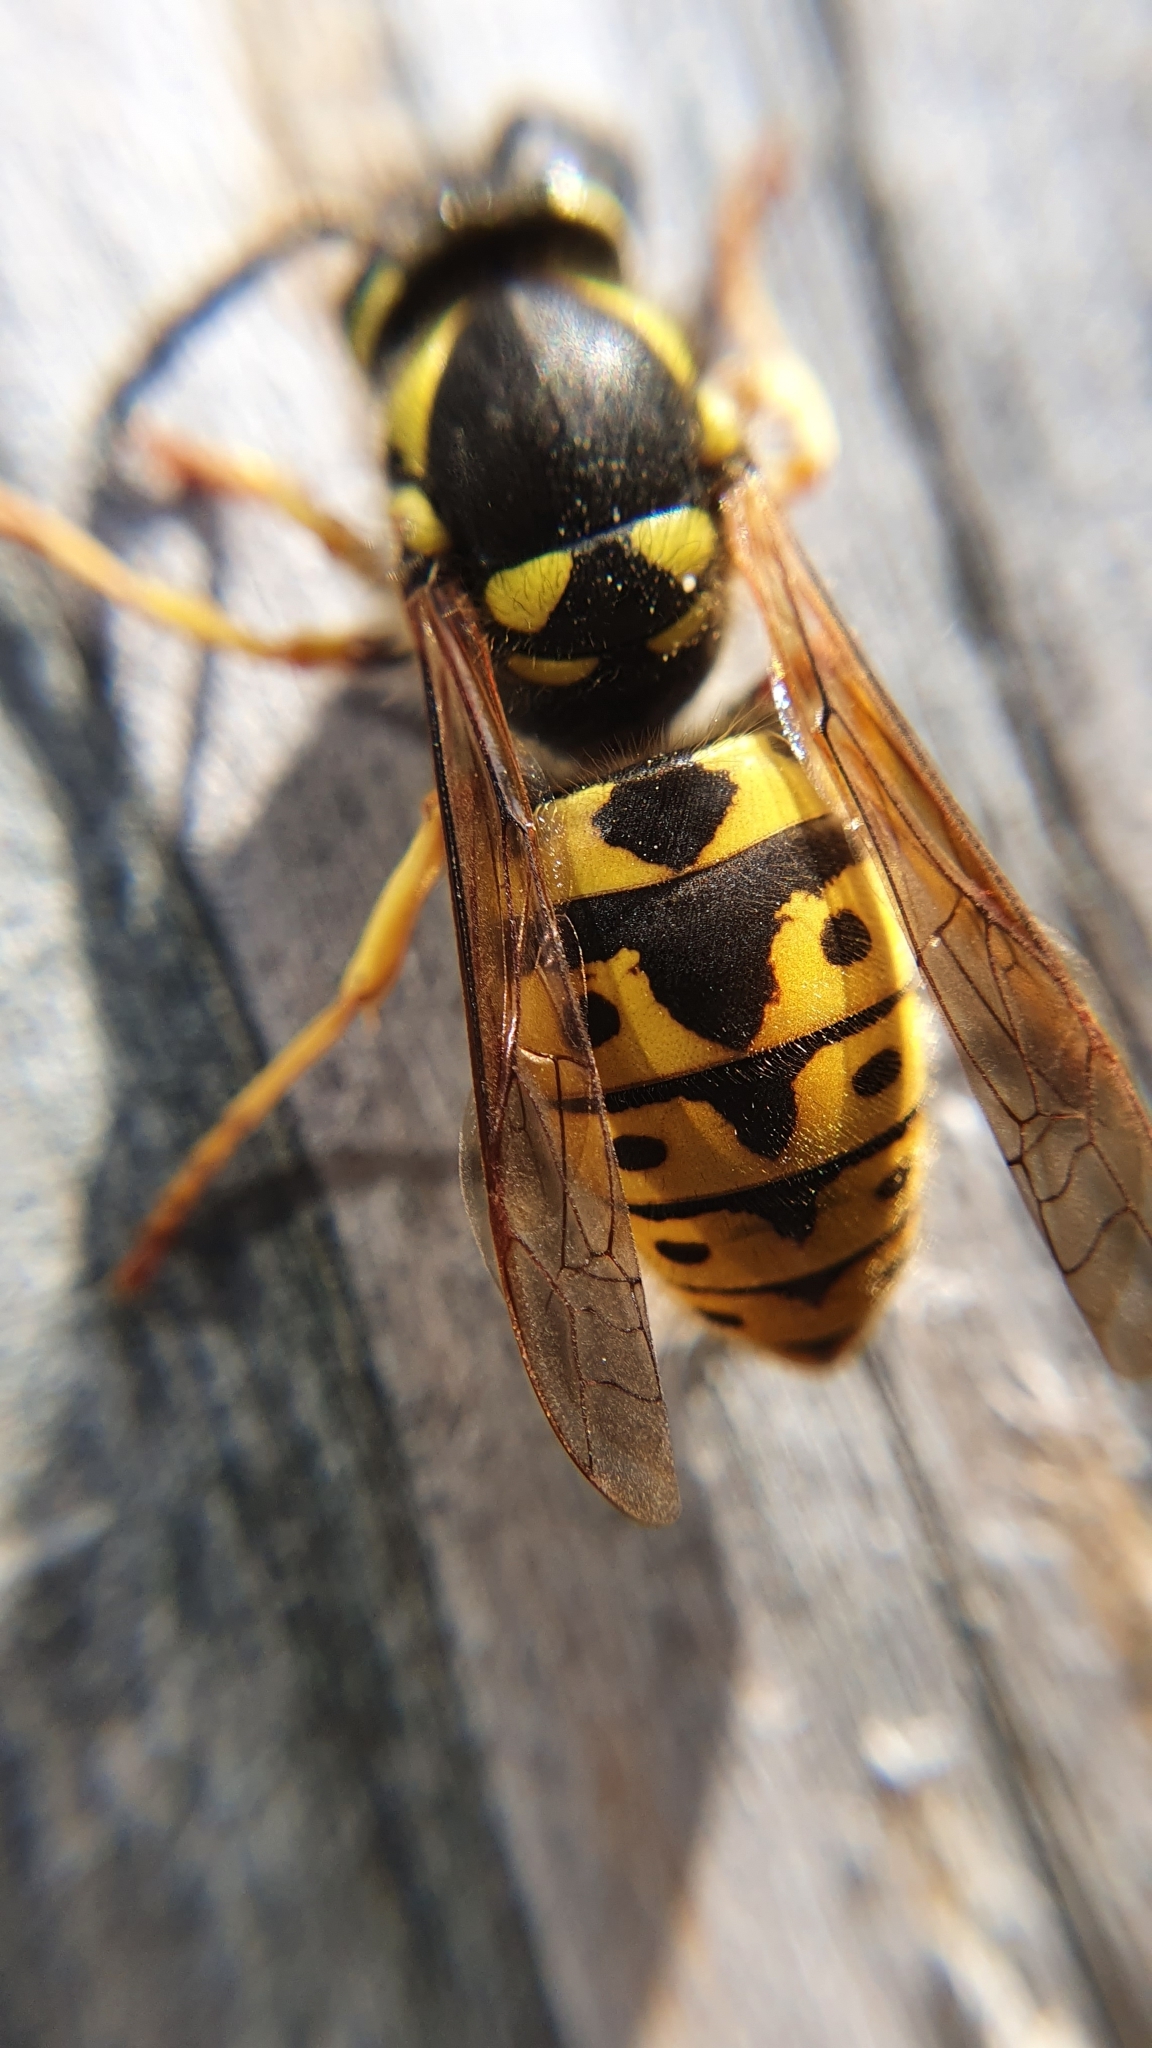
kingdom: Animalia
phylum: Arthropoda
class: Insecta
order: Hymenoptera
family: Vespidae
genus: Vespula
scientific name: Vespula germanica
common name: German wasp
